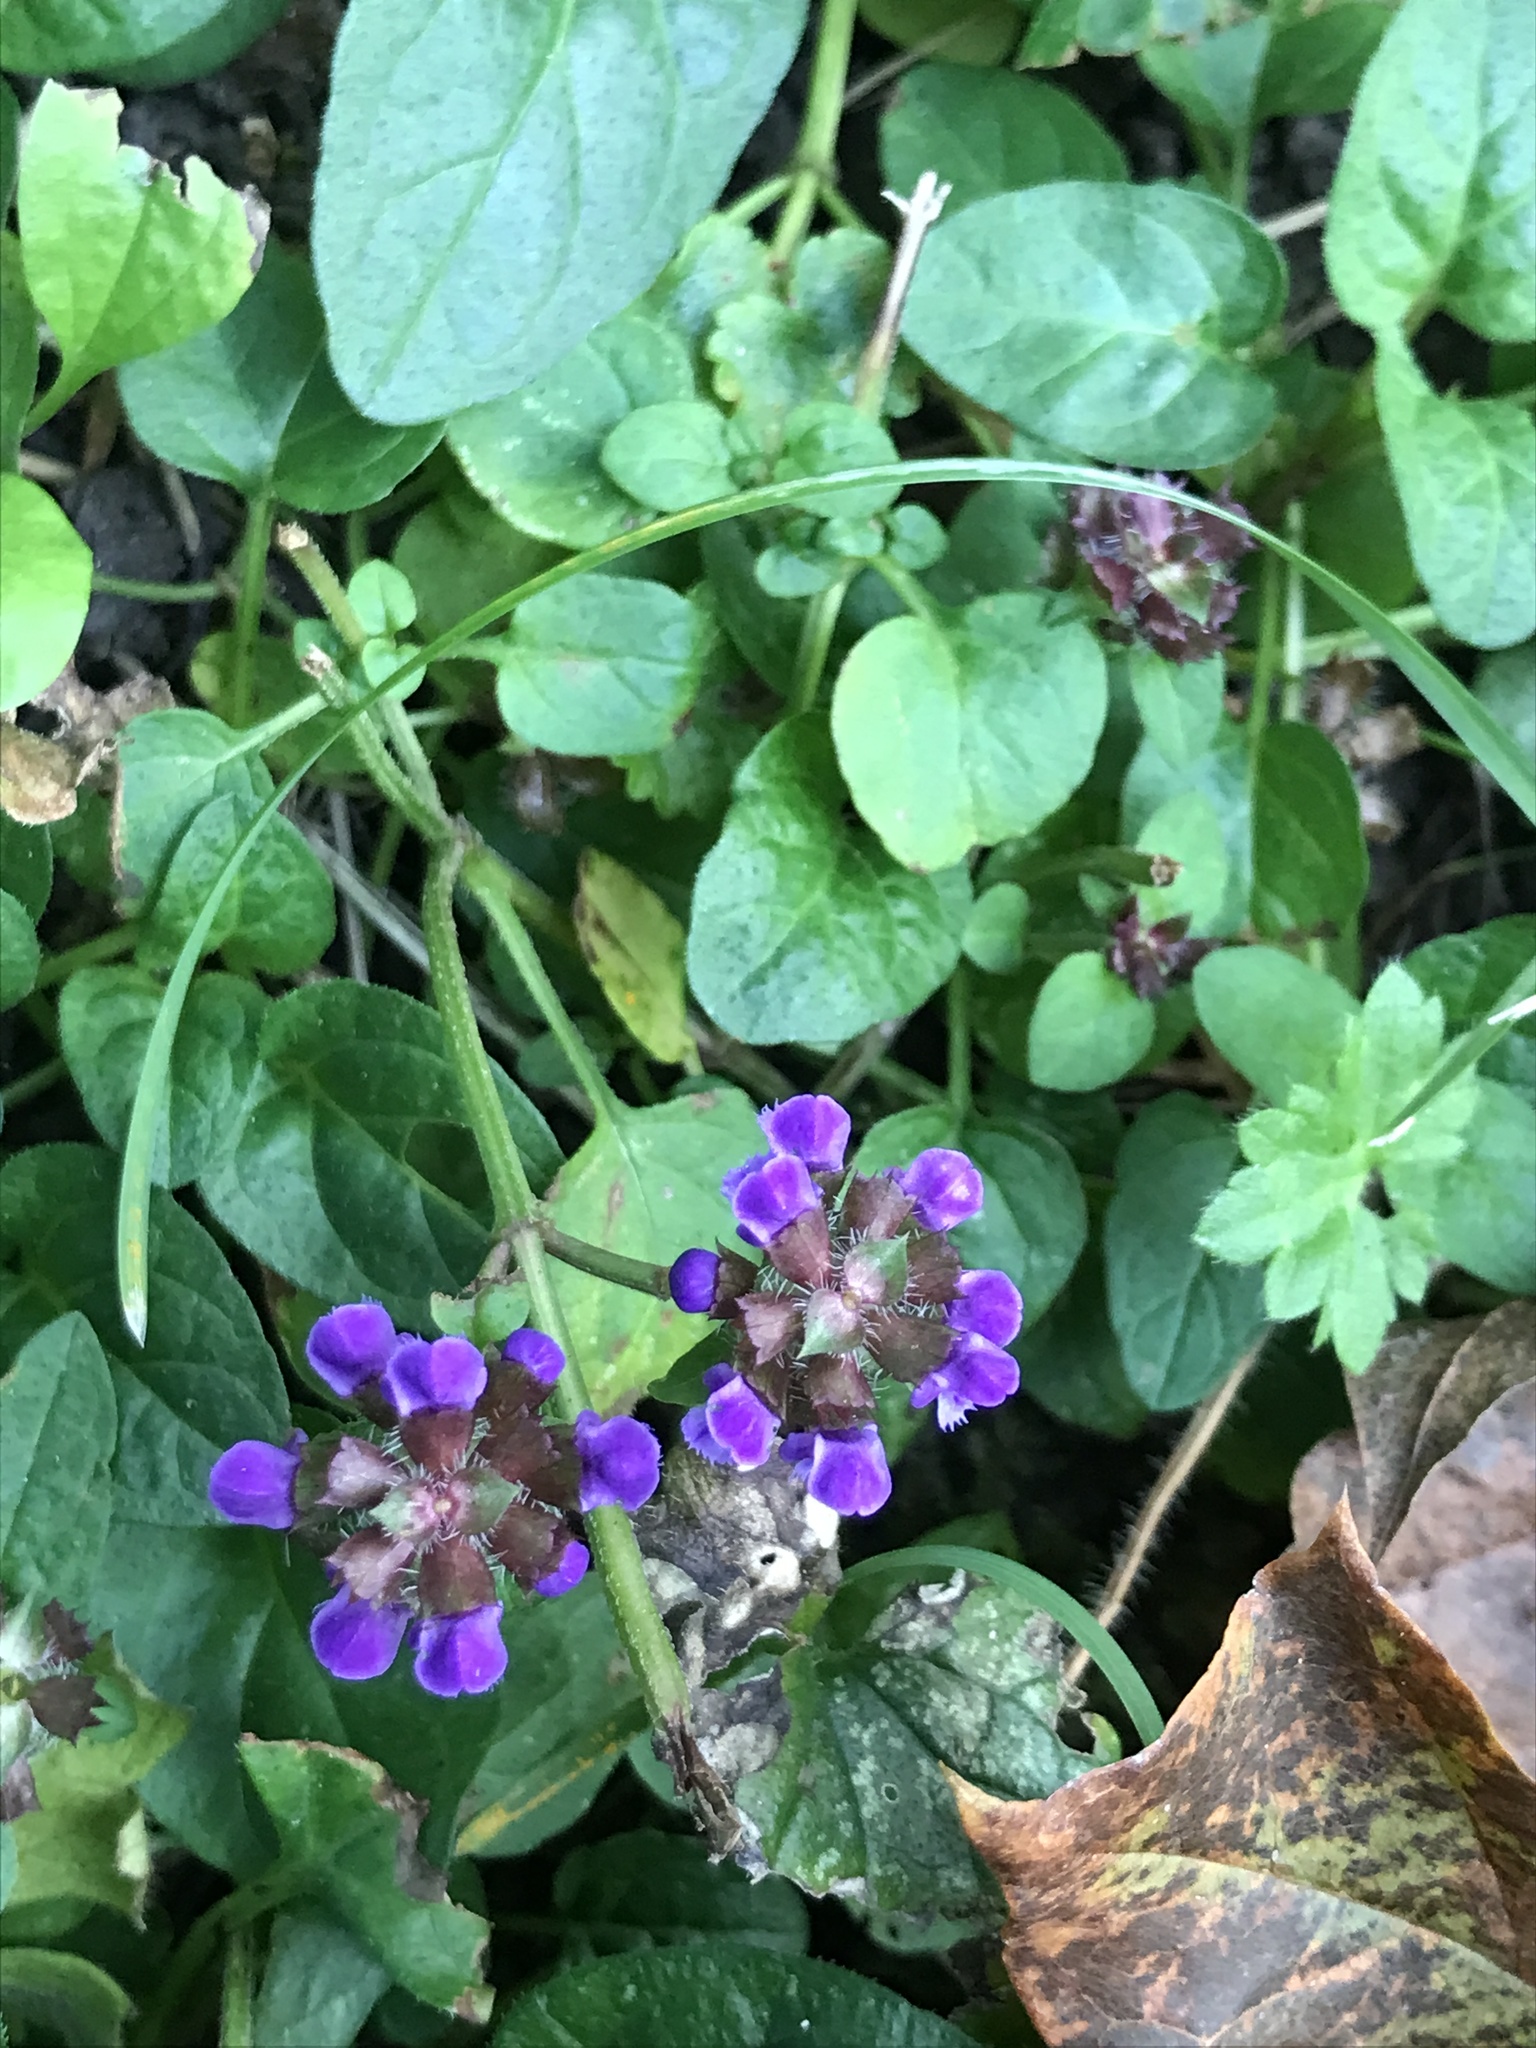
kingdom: Plantae
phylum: Tracheophyta
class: Magnoliopsida
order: Lamiales
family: Lamiaceae
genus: Prunella
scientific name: Prunella vulgaris
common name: Heal-all
